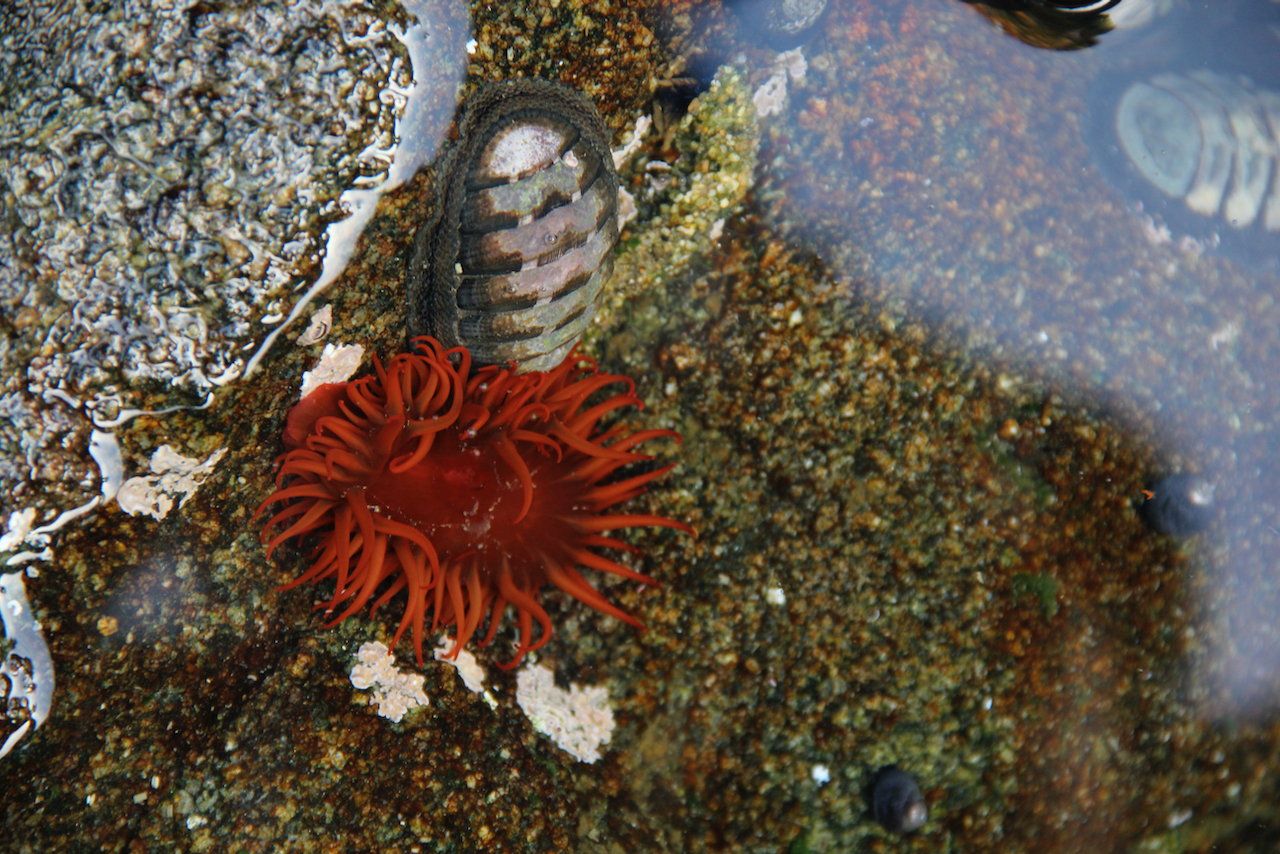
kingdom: Animalia
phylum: Mollusca
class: Polyplacophora
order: Chitonida
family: Chitonidae
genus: Chiton
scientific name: Chiton granosus
